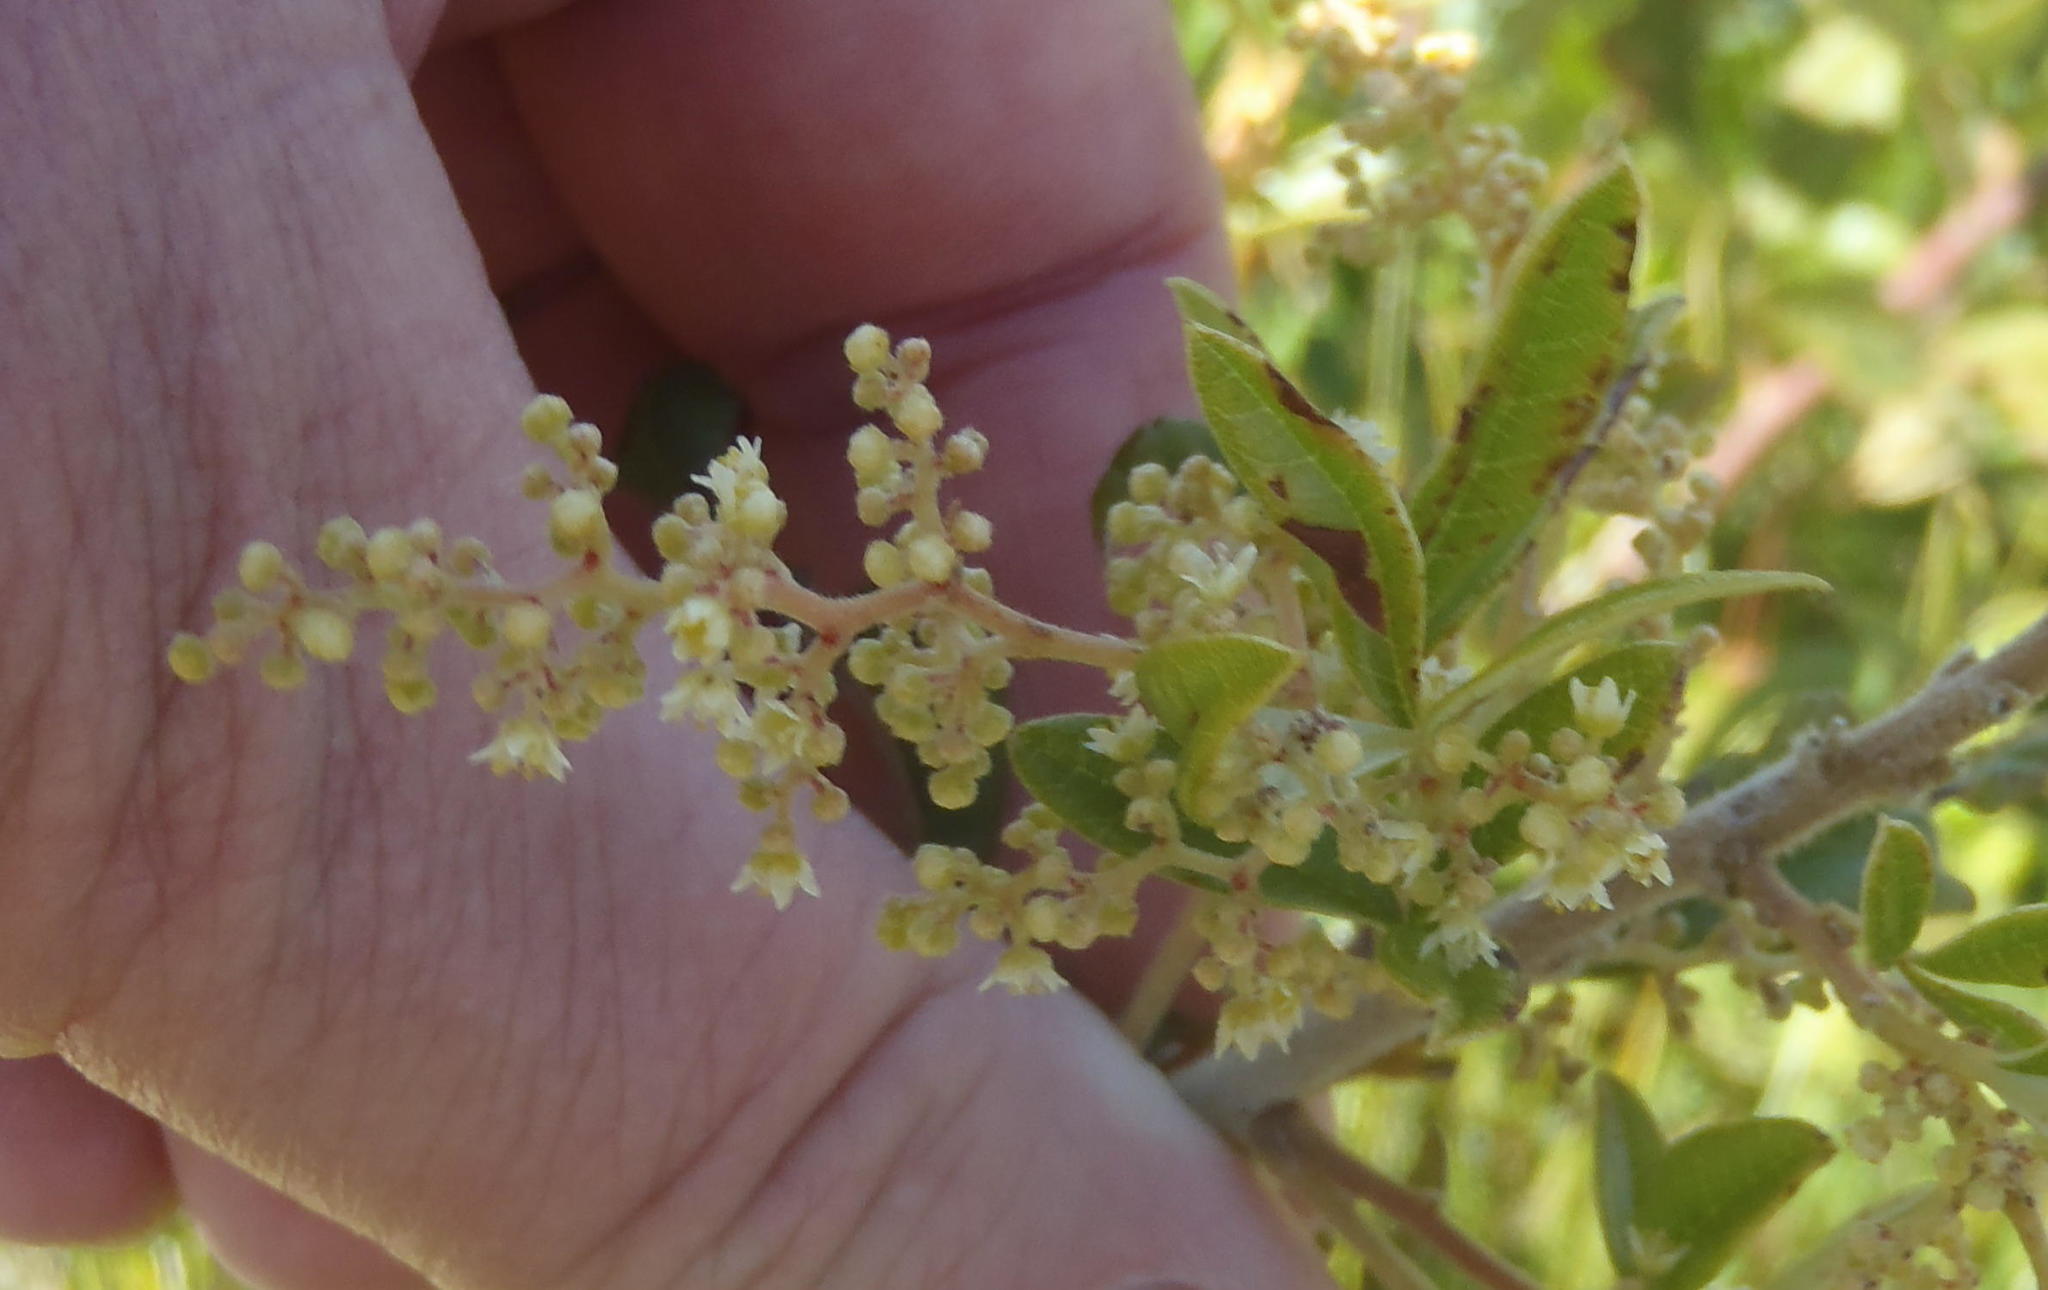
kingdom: Plantae
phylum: Tracheophyta
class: Magnoliopsida
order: Sapindales
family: Anacardiaceae
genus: Searsia
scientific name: Searsia tomentosa
